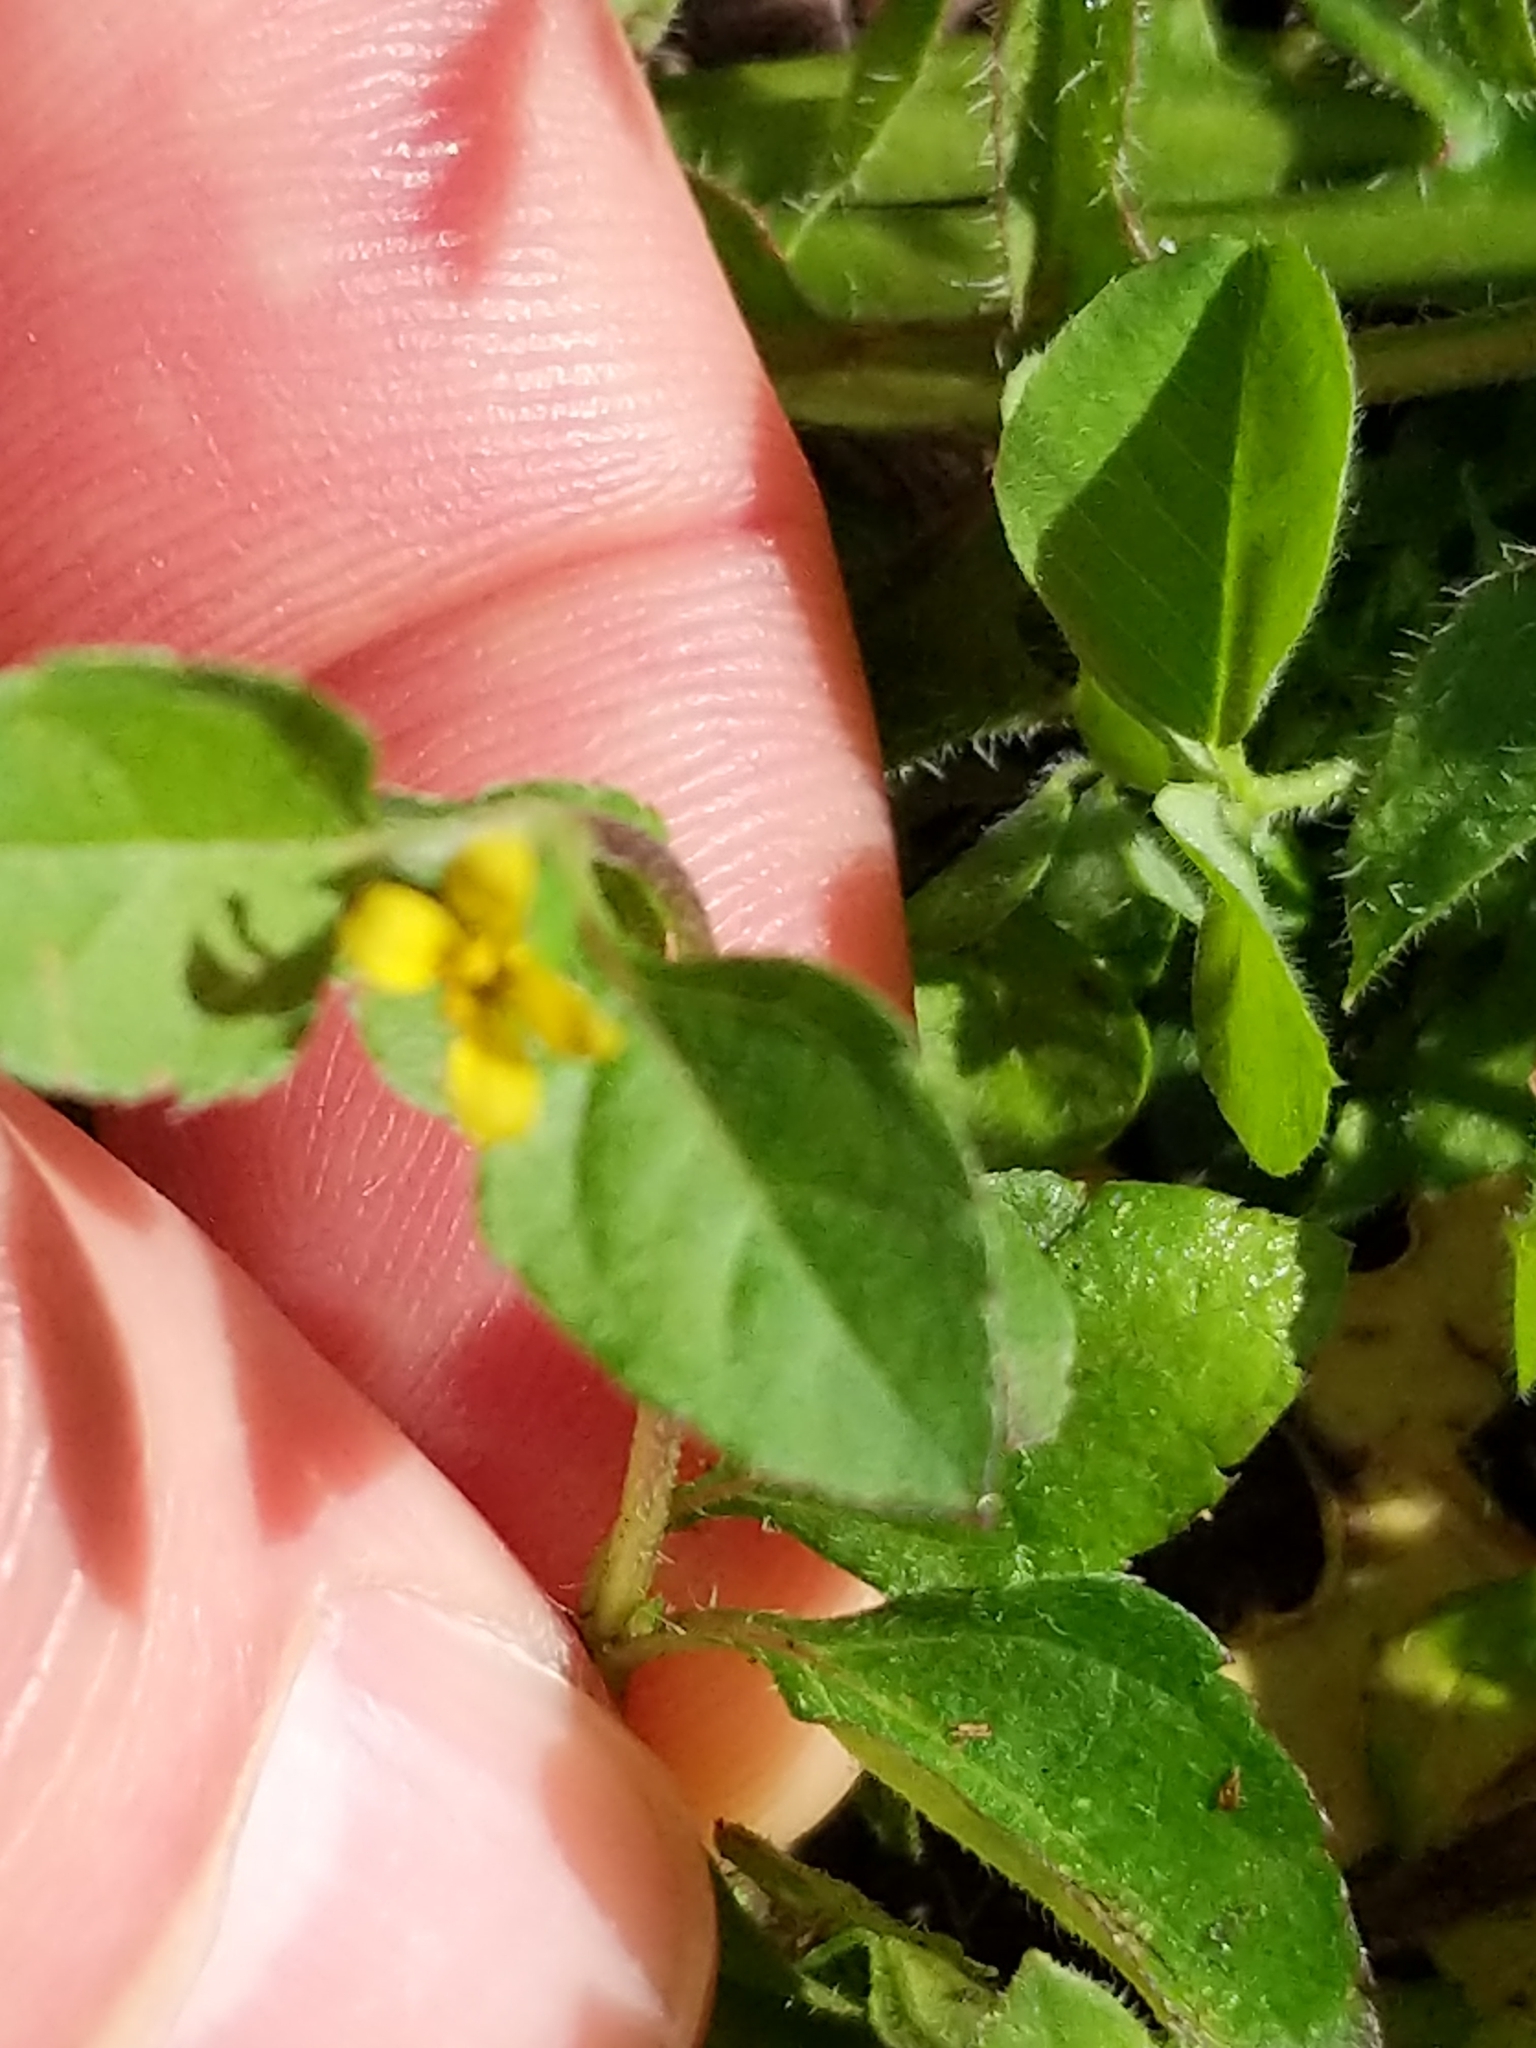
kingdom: Plantae
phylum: Tracheophyta
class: Magnoliopsida
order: Asterales
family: Asteraceae
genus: Calyptocarpus
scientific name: Calyptocarpus vialis
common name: Straggler daisy
